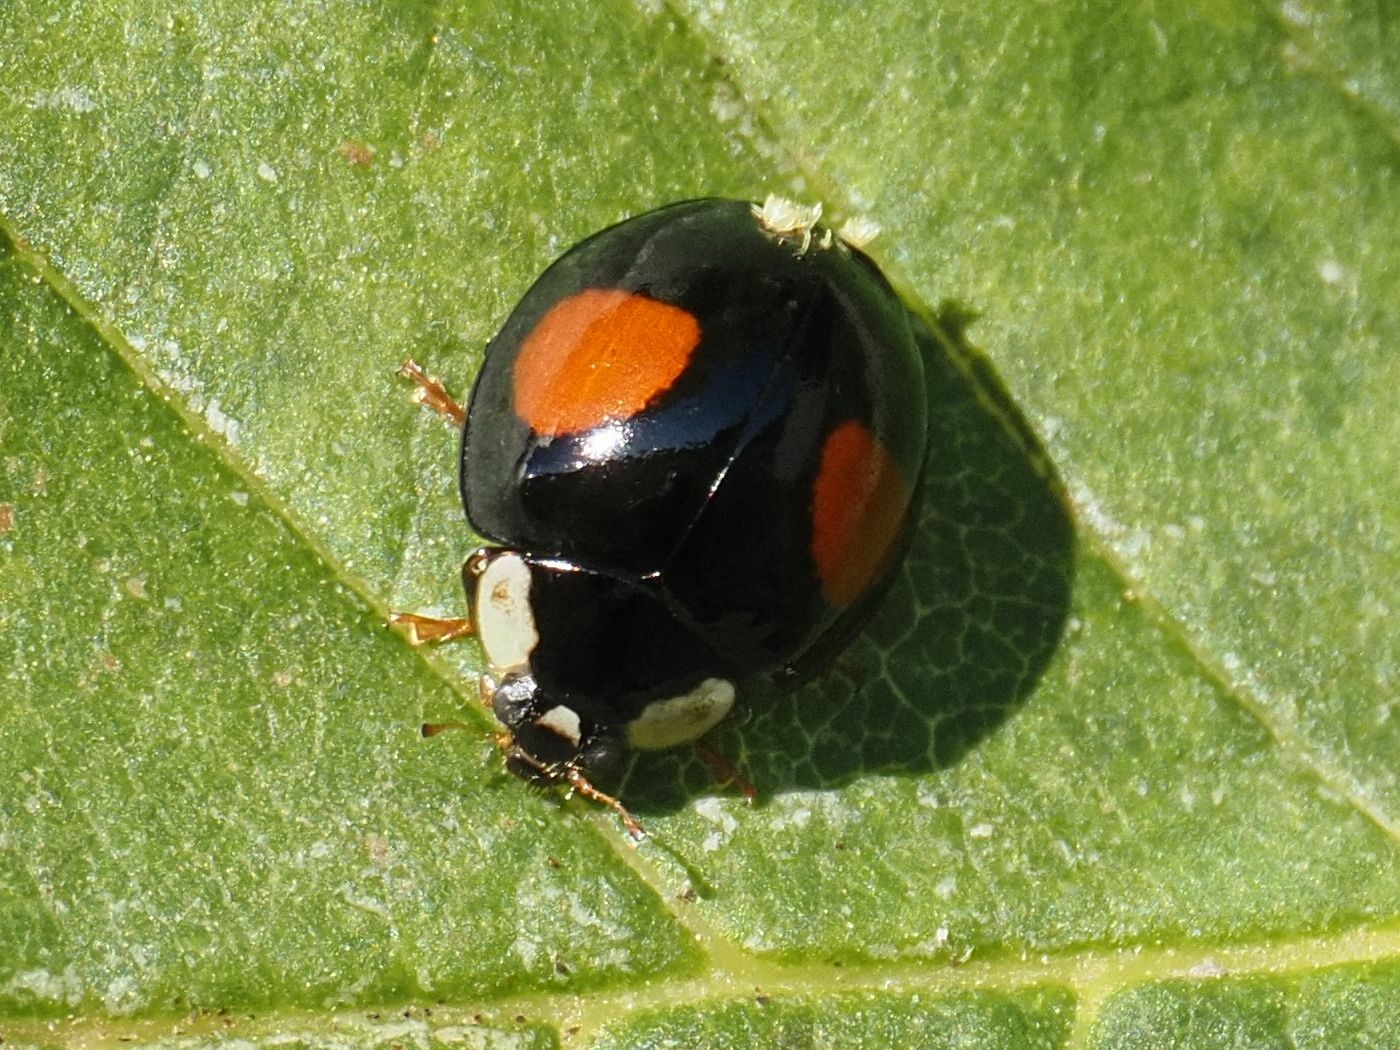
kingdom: Animalia
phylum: Arthropoda
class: Insecta
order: Coleoptera
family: Coccinellidae
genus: Harmonia
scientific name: Harmonia axyridis
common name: Harlequin ladybird
